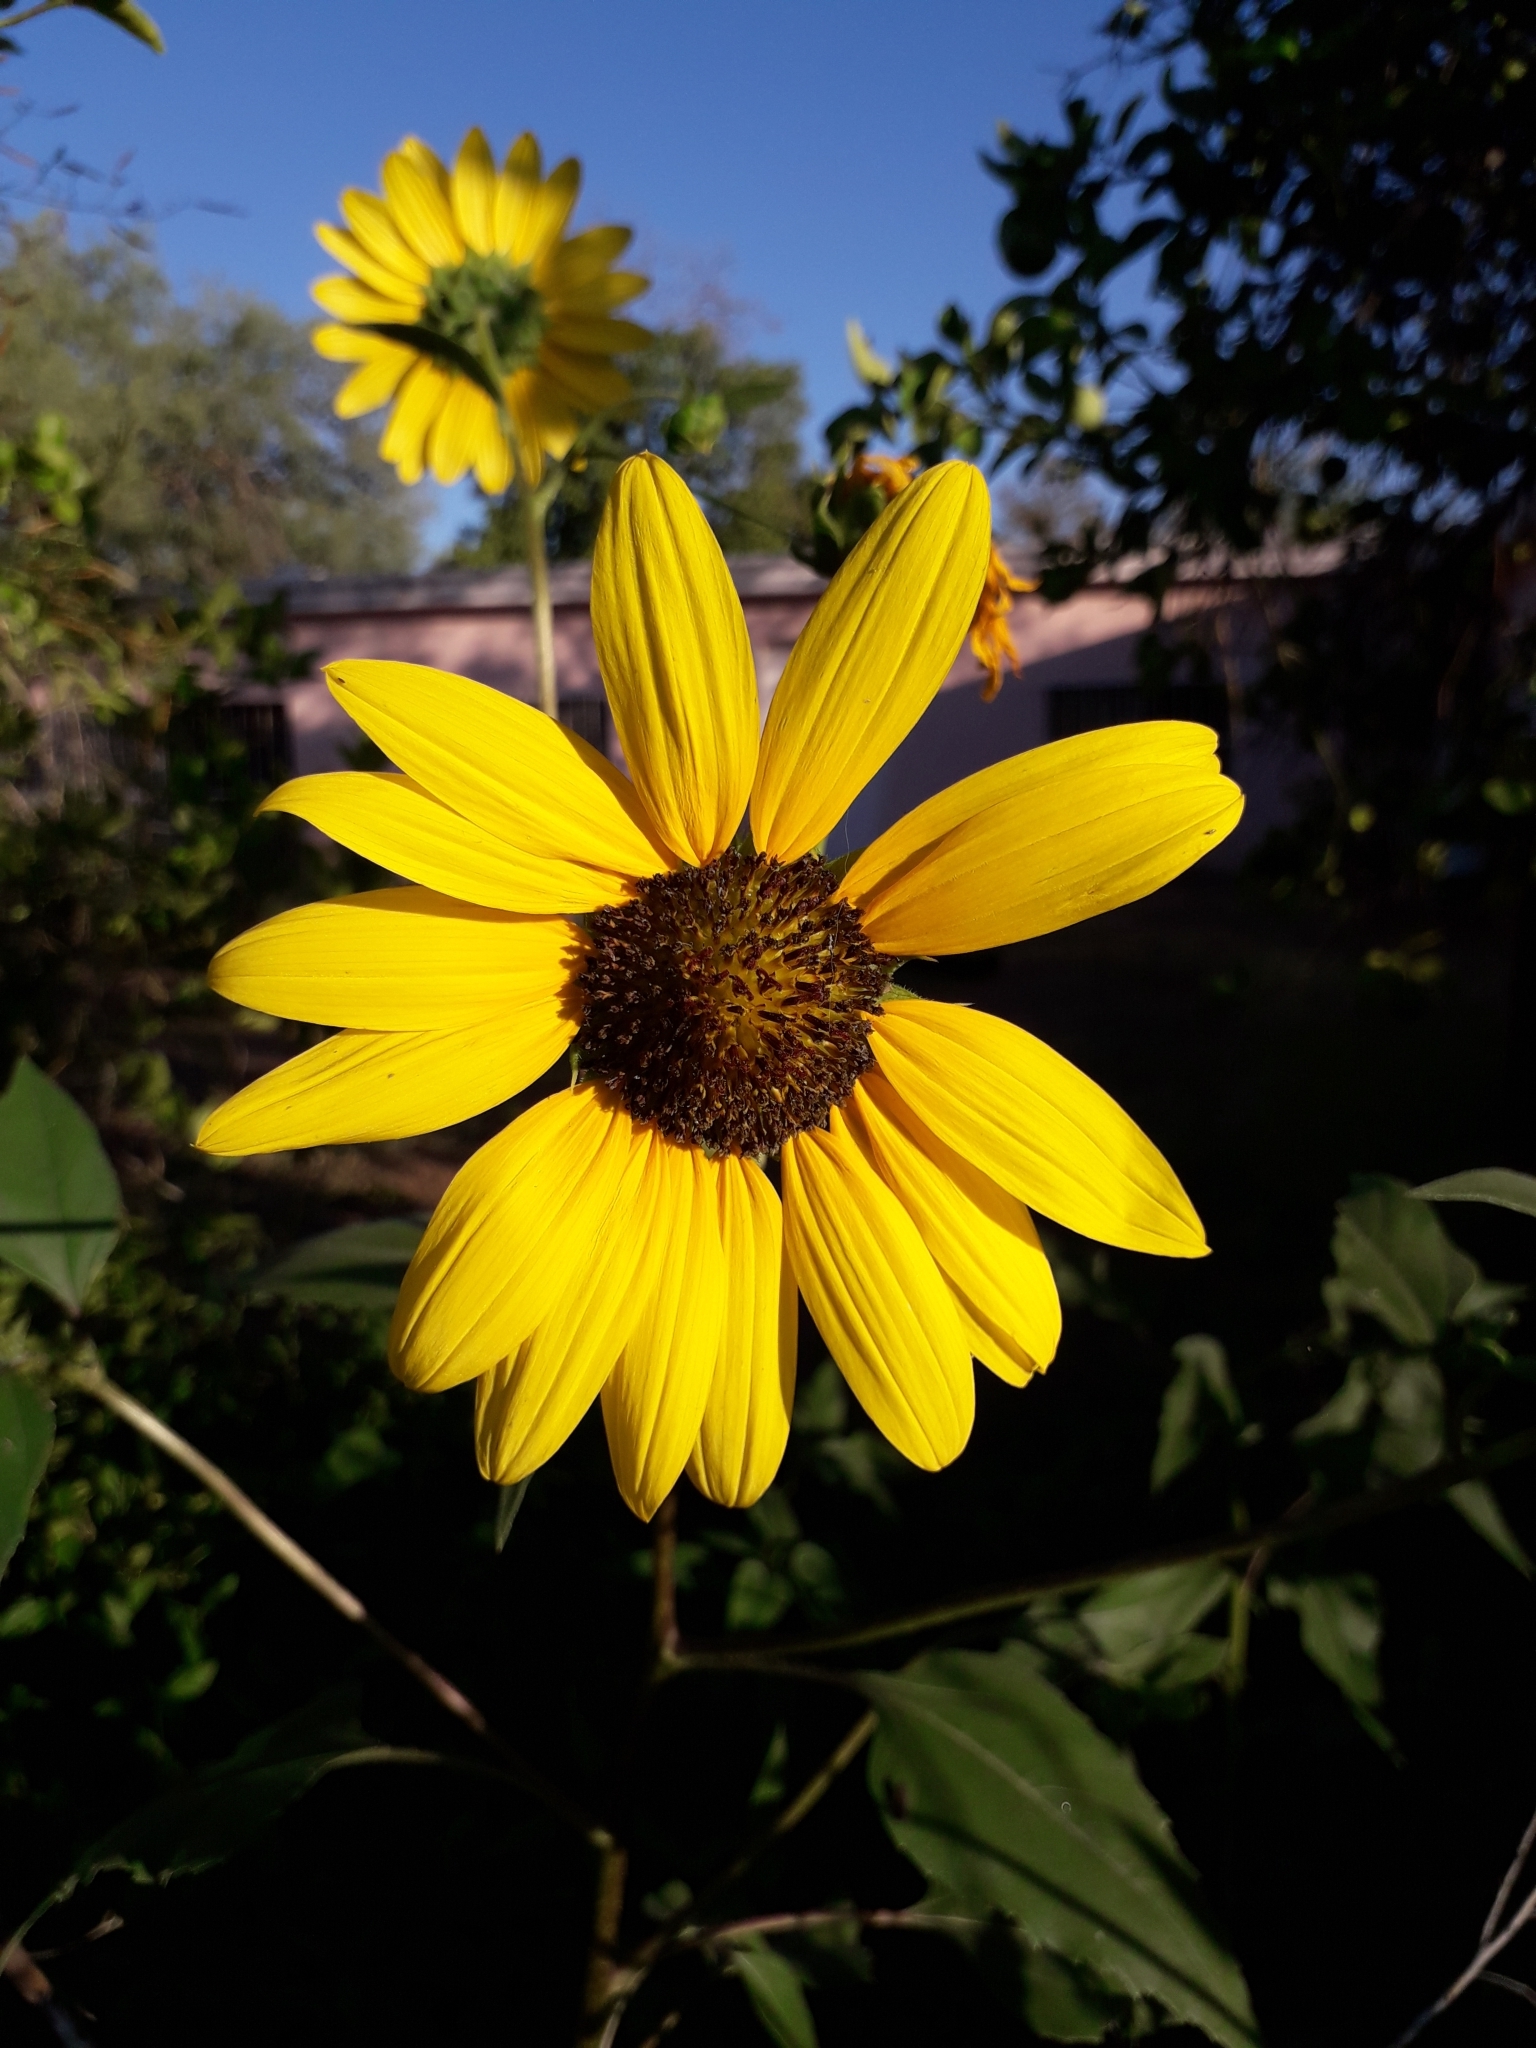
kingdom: Plantae
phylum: Tracheophyta
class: Magnoliopsida
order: Asterales
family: Asteraceae
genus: Helianthus
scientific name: Helianthus petiolaris
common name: Lesser sunflower
